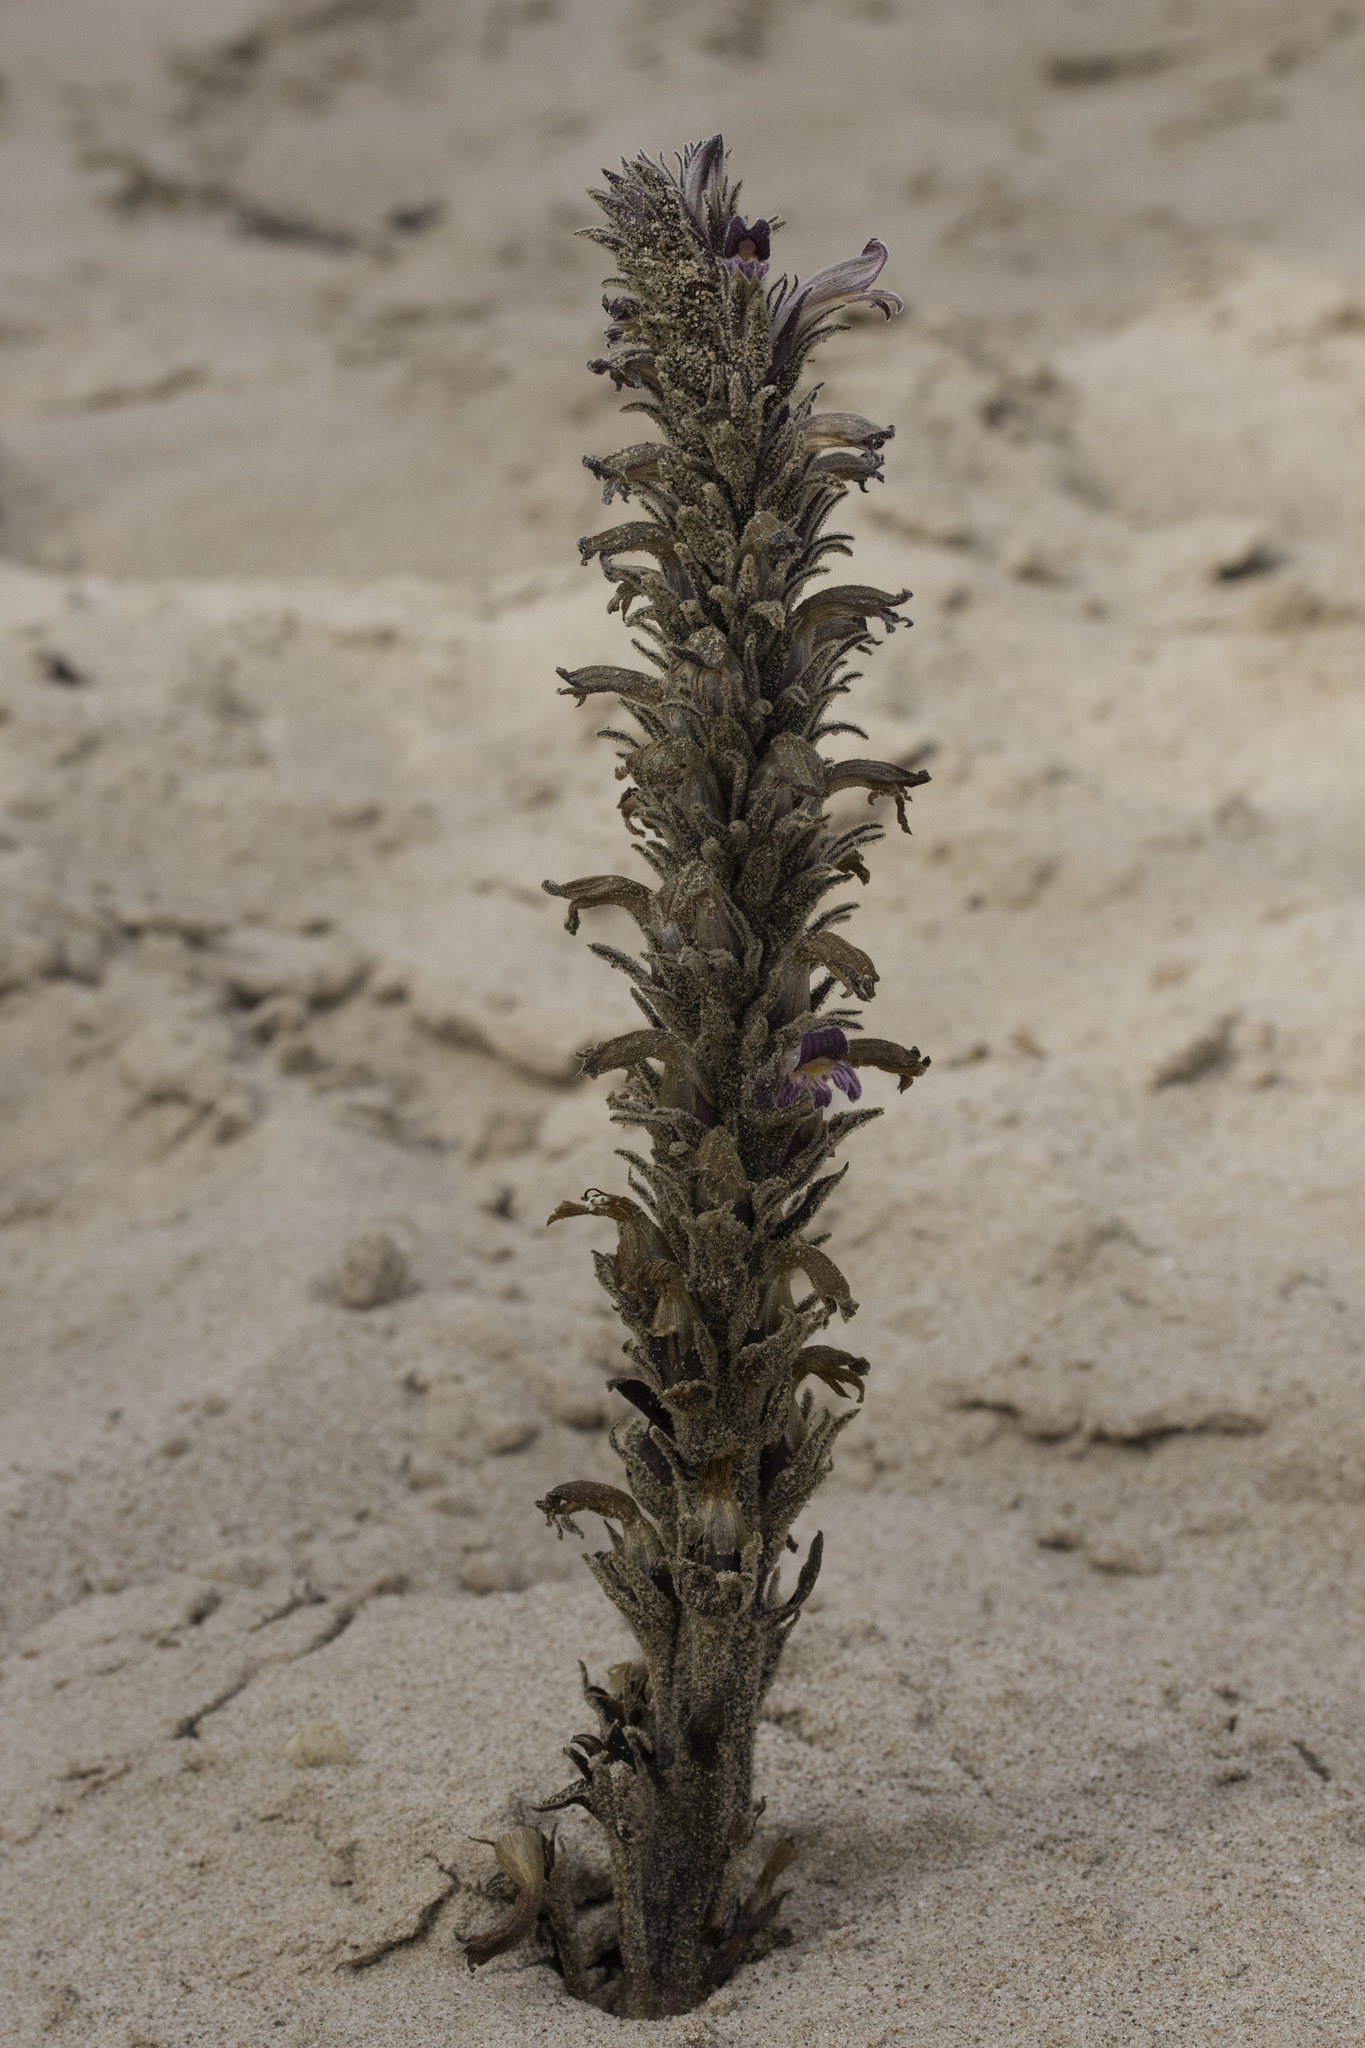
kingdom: Plantae
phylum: Tracheophyta
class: Magnoliopsida
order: Lamiales
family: Orobanchaceae
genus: Aphyllon
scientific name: Aphyllon ludovicianum
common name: Louisiana broomrape
